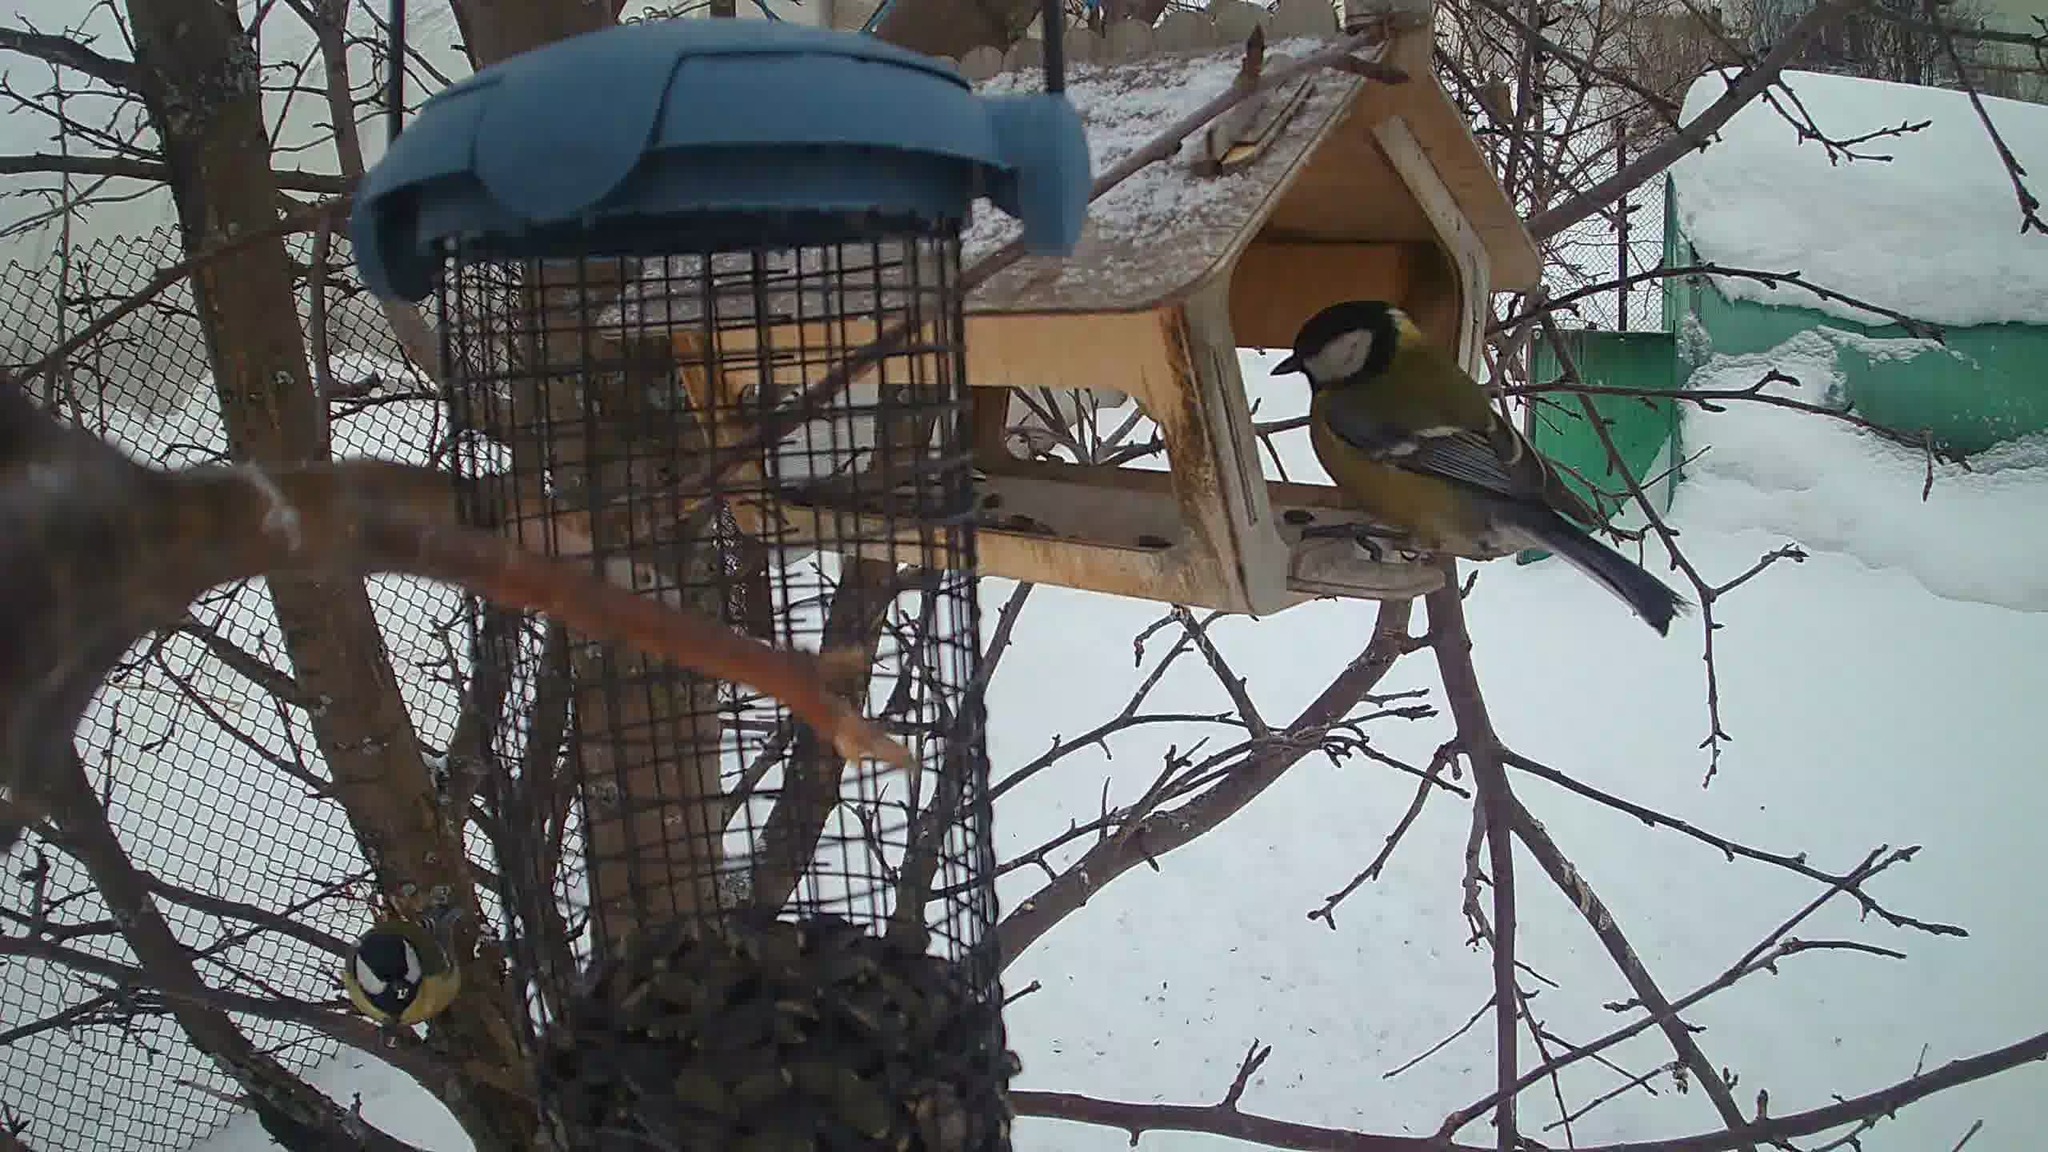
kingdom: Animalia
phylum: Chordata
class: Aves
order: Passeriformes
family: Paridae
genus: Parus
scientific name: Parus major
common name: Great tit
